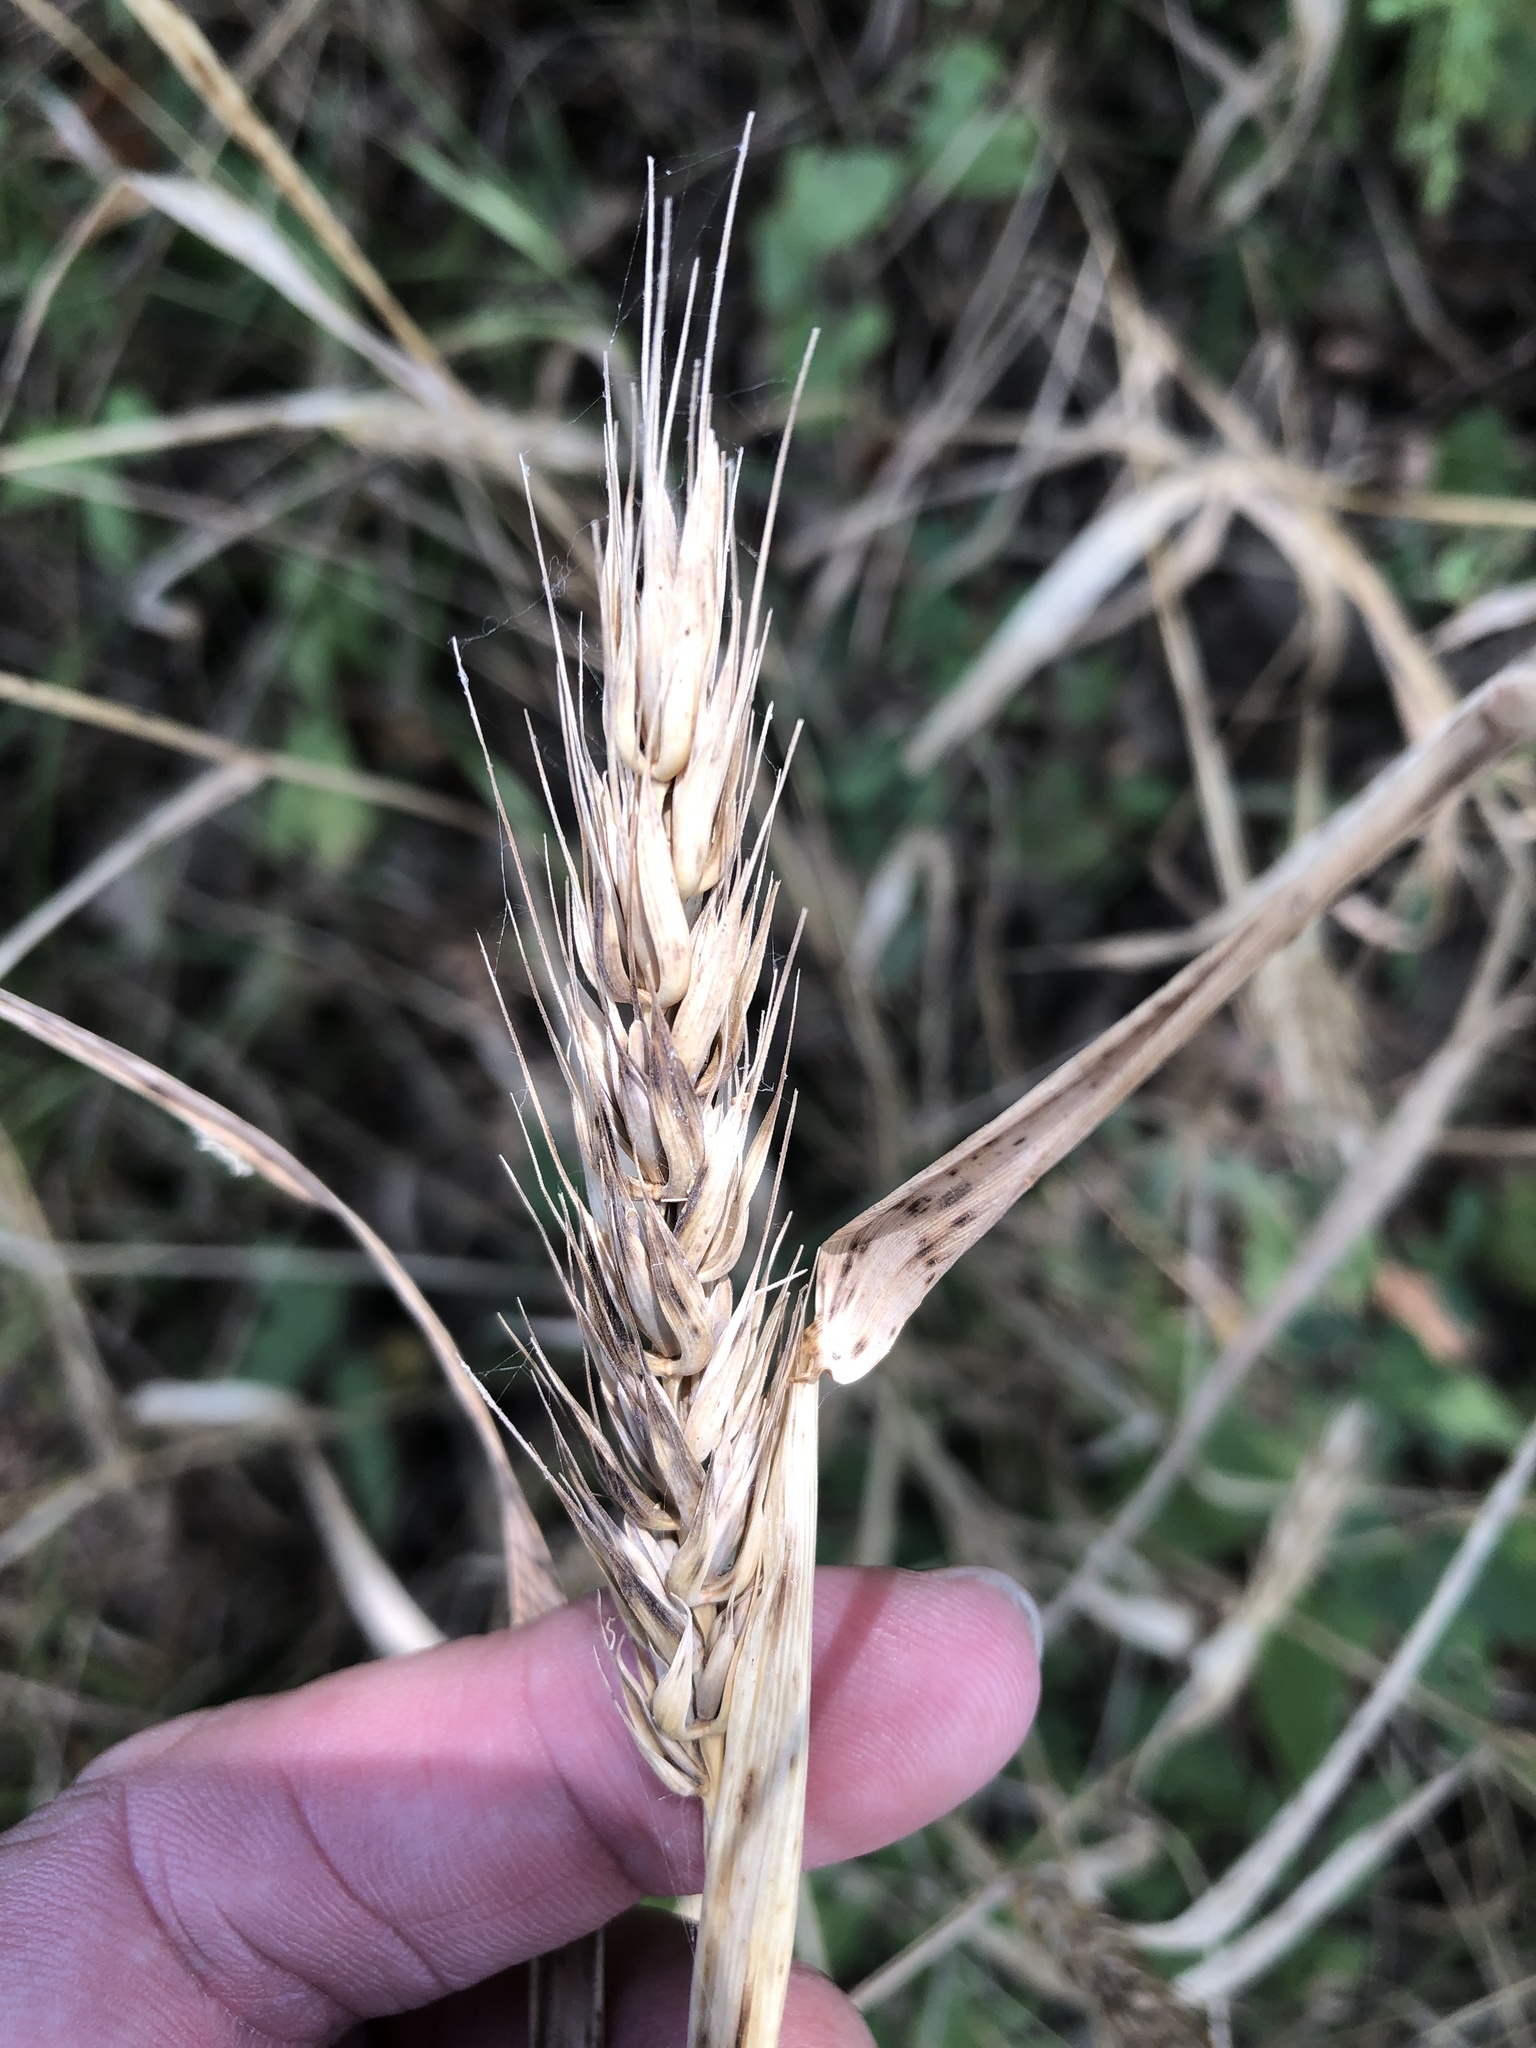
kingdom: Plantae
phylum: Tracheophyta
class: Liliopsida
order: Poales
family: Poaceae
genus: Elymus
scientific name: Elymus virginicus
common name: Common eastern wildrye
